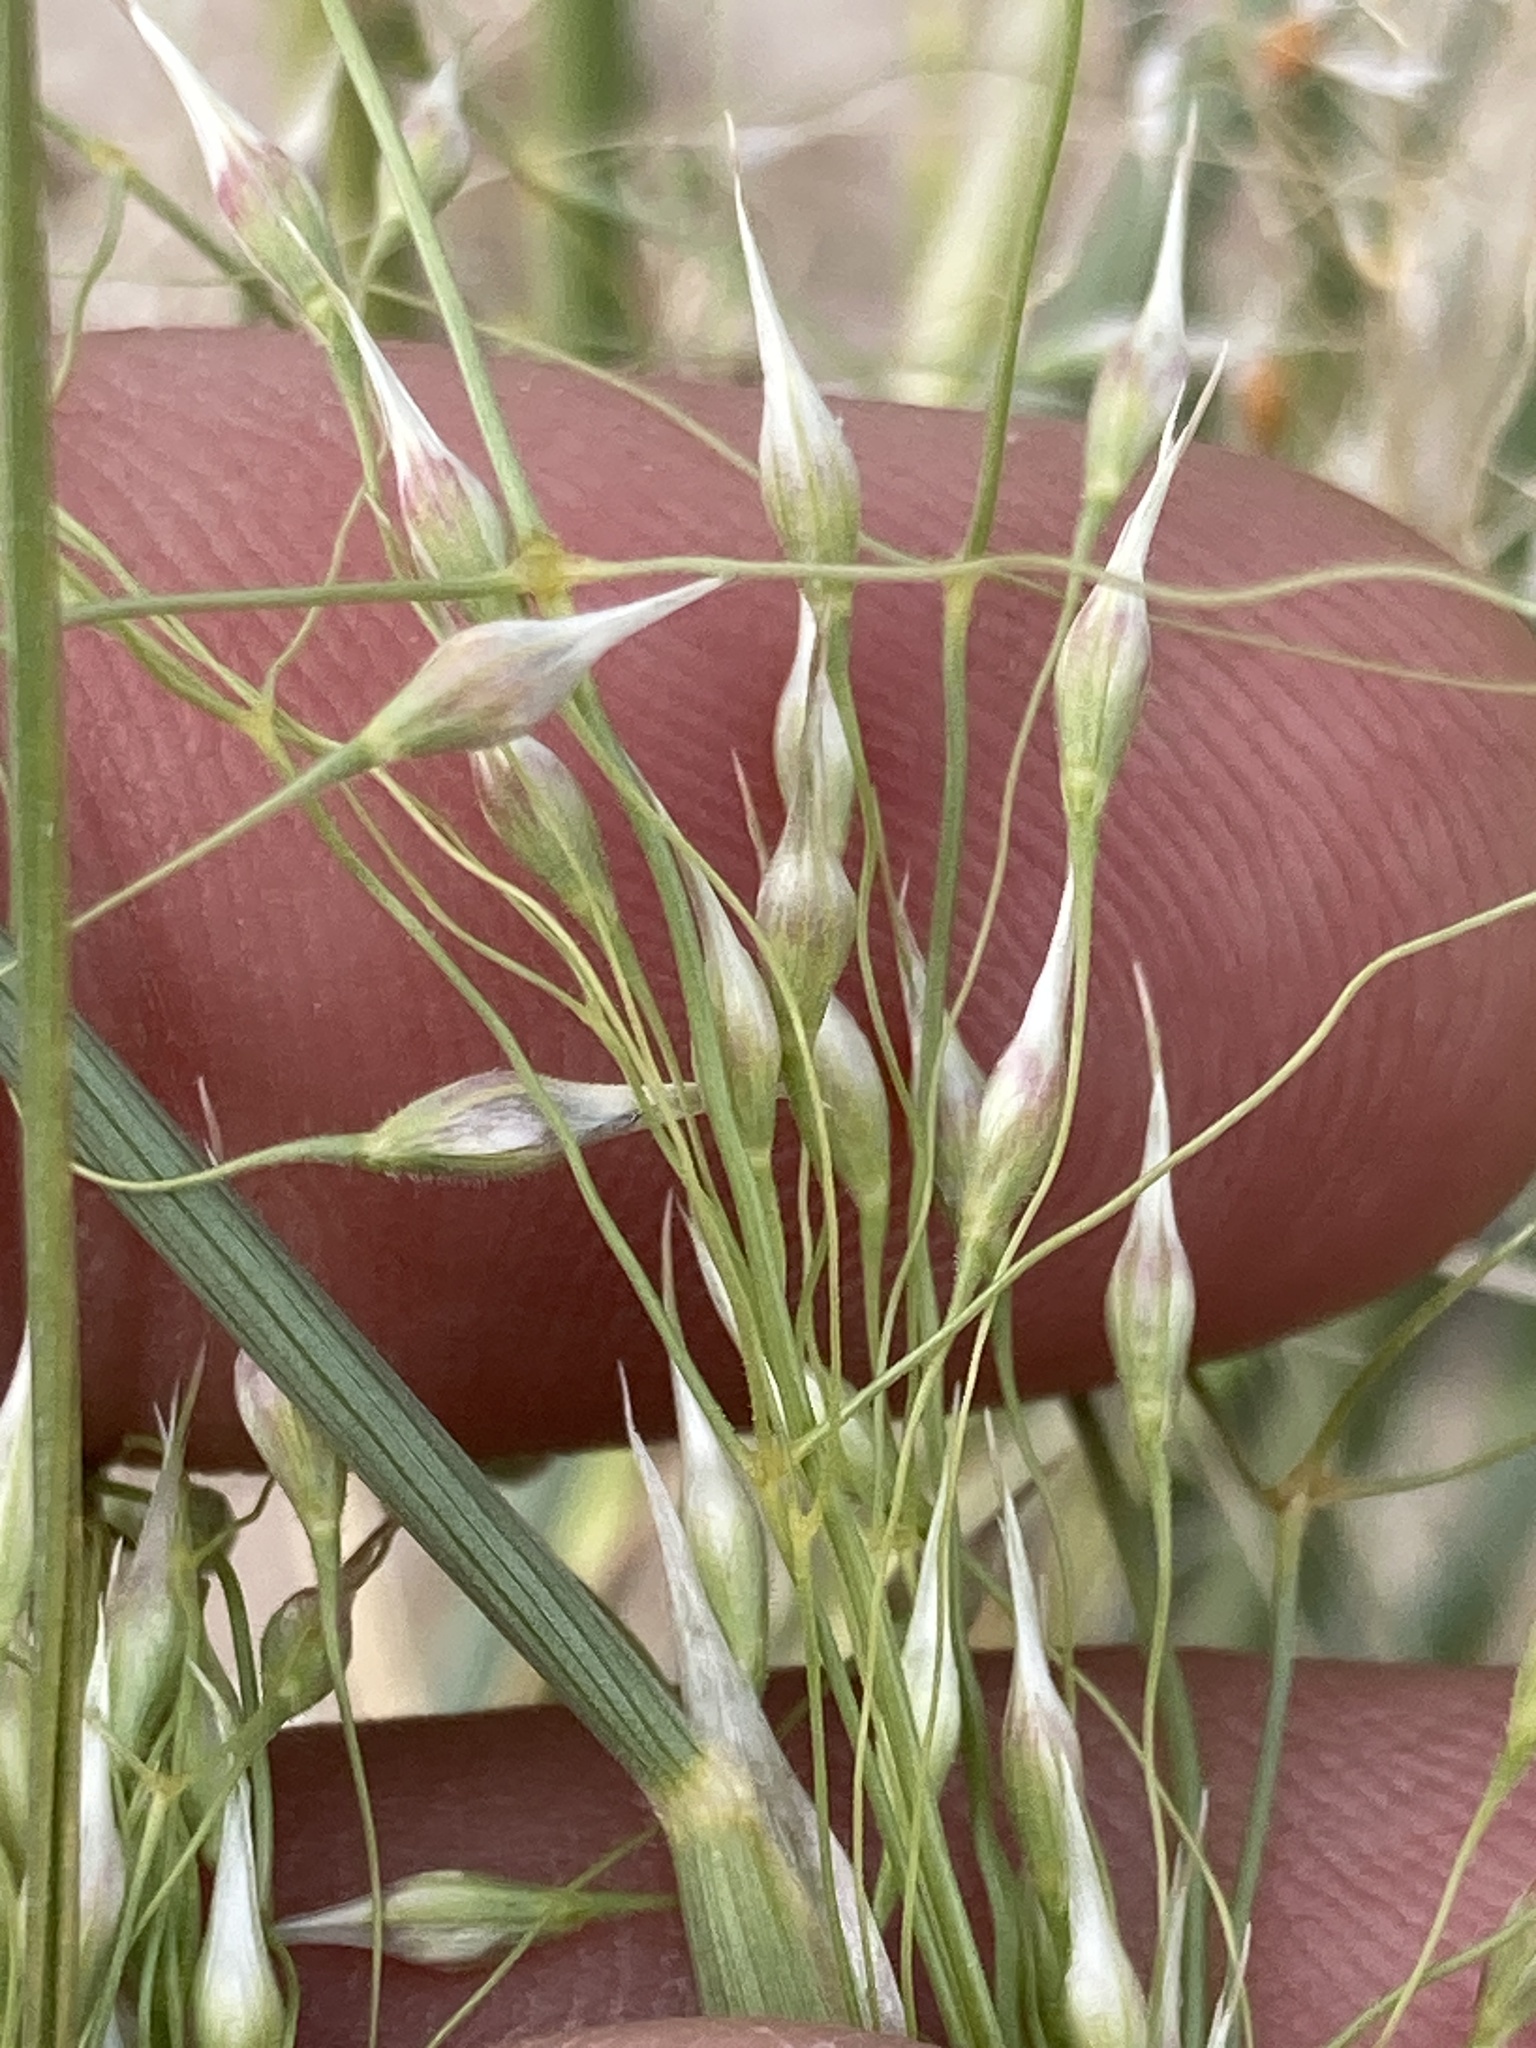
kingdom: Plantae
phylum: Tracheophyta
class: Liliopsida
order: Poales
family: Poaceae
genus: Eriocoma
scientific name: Eriocoma hymenoides
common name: Indian mountain ricegrass
